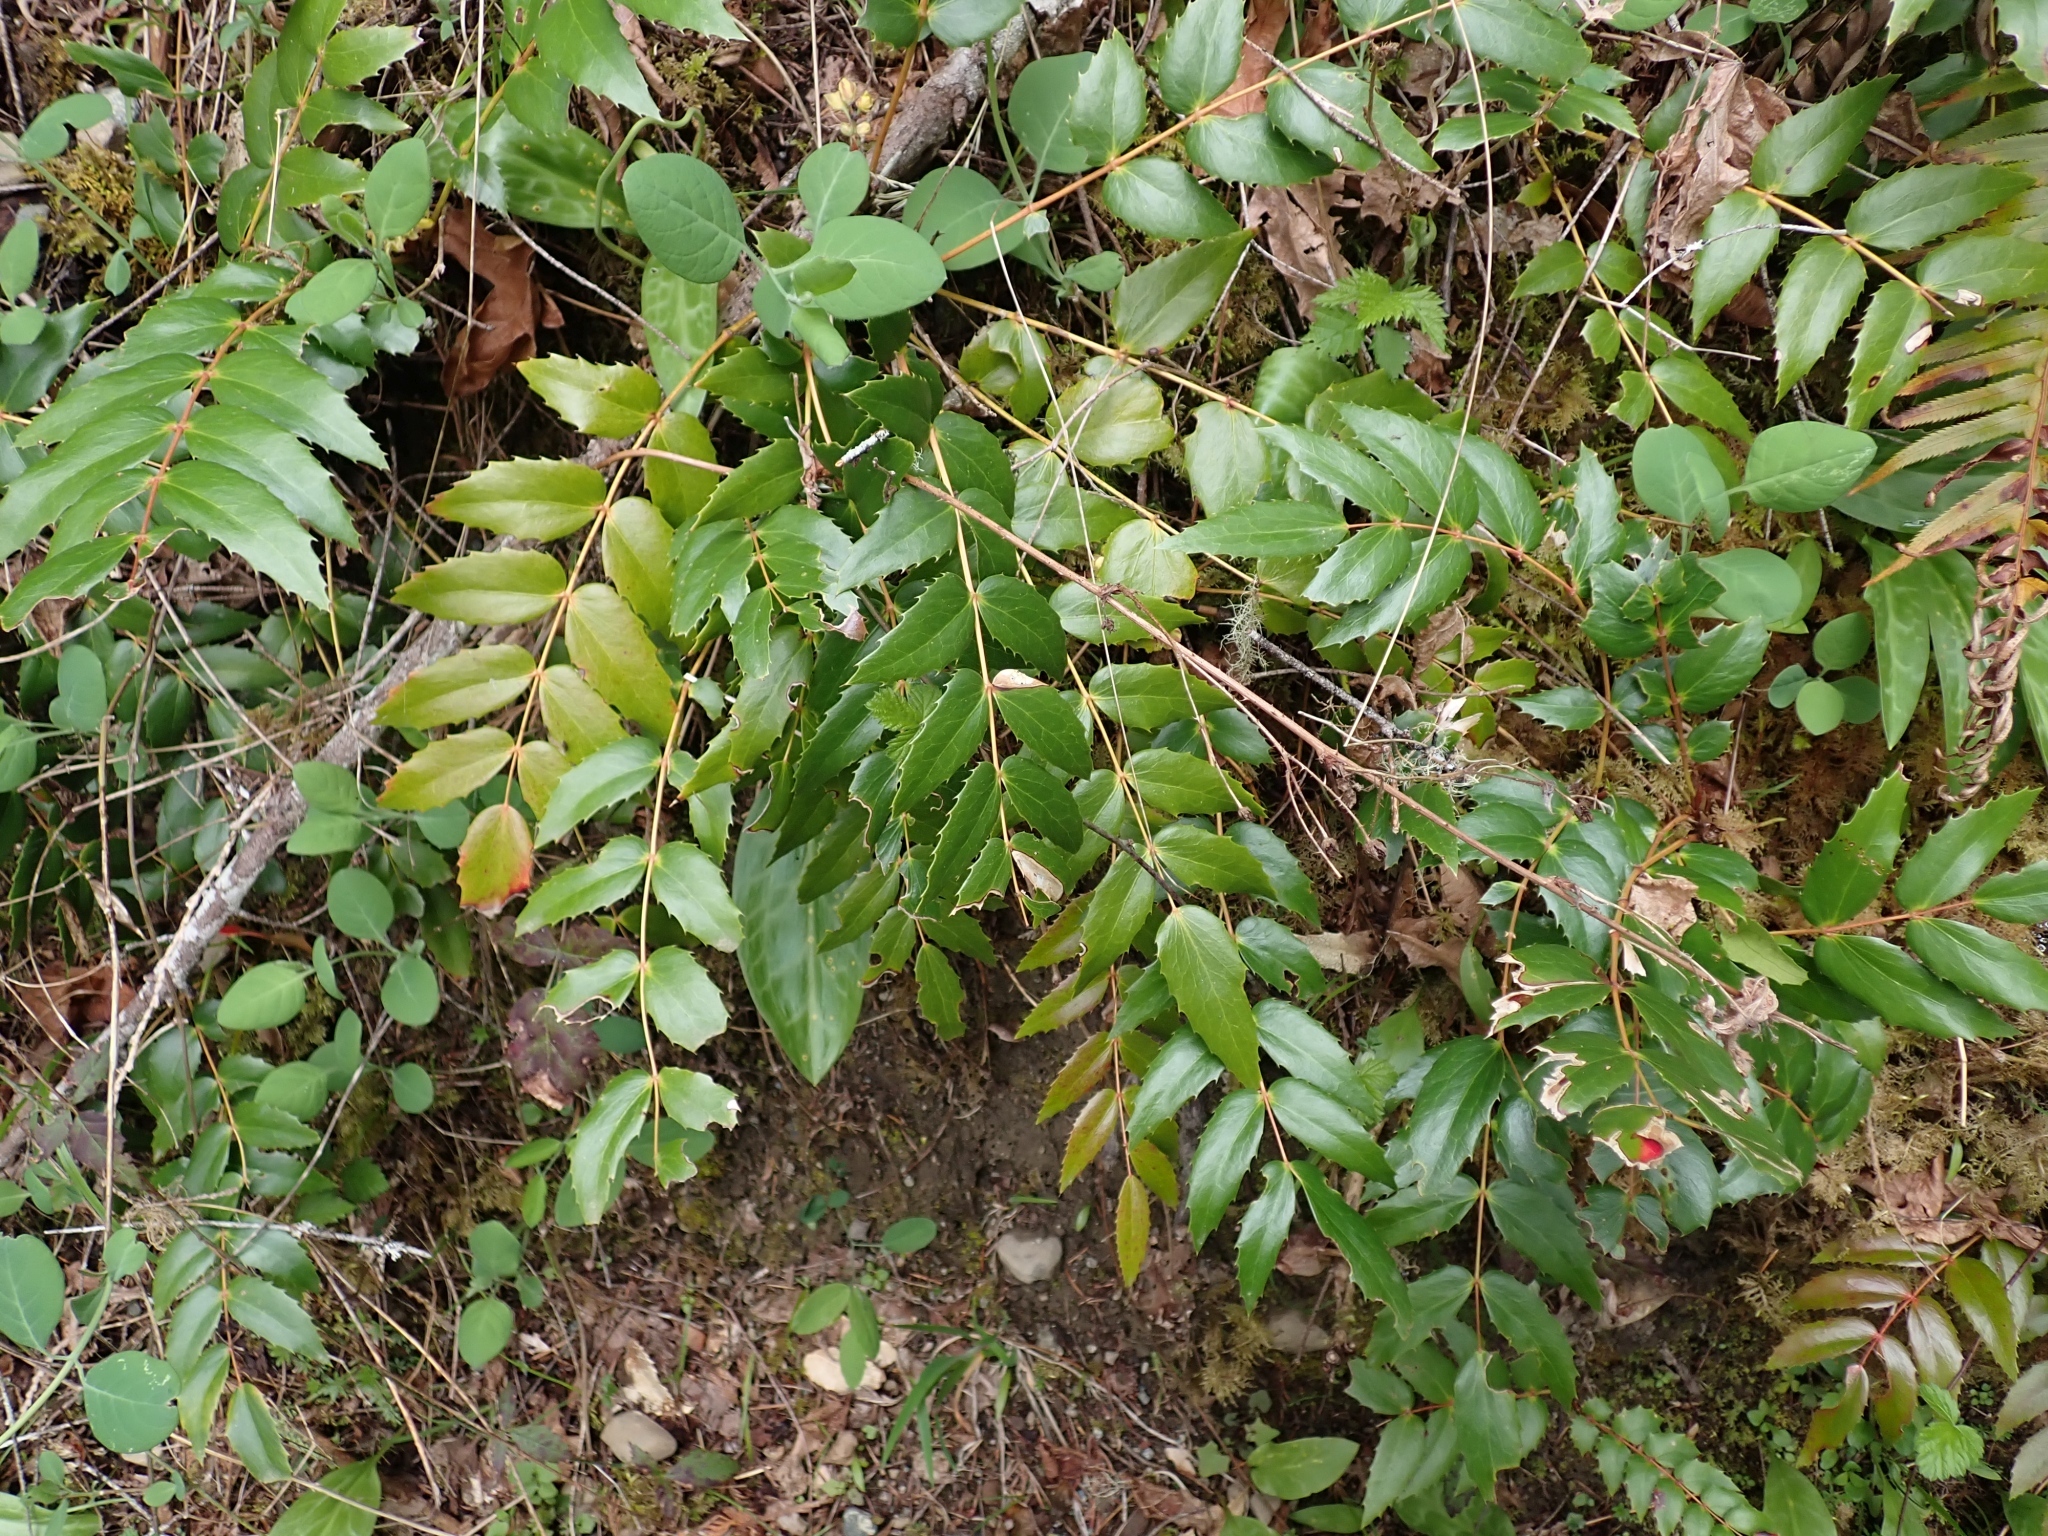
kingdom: Plantae
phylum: Tracheophyta
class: Magnoliopsida
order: Ranunculales
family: Berberidaceae
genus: Mahonia
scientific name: Mahonia nervosa
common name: Cascade oregon-grape
